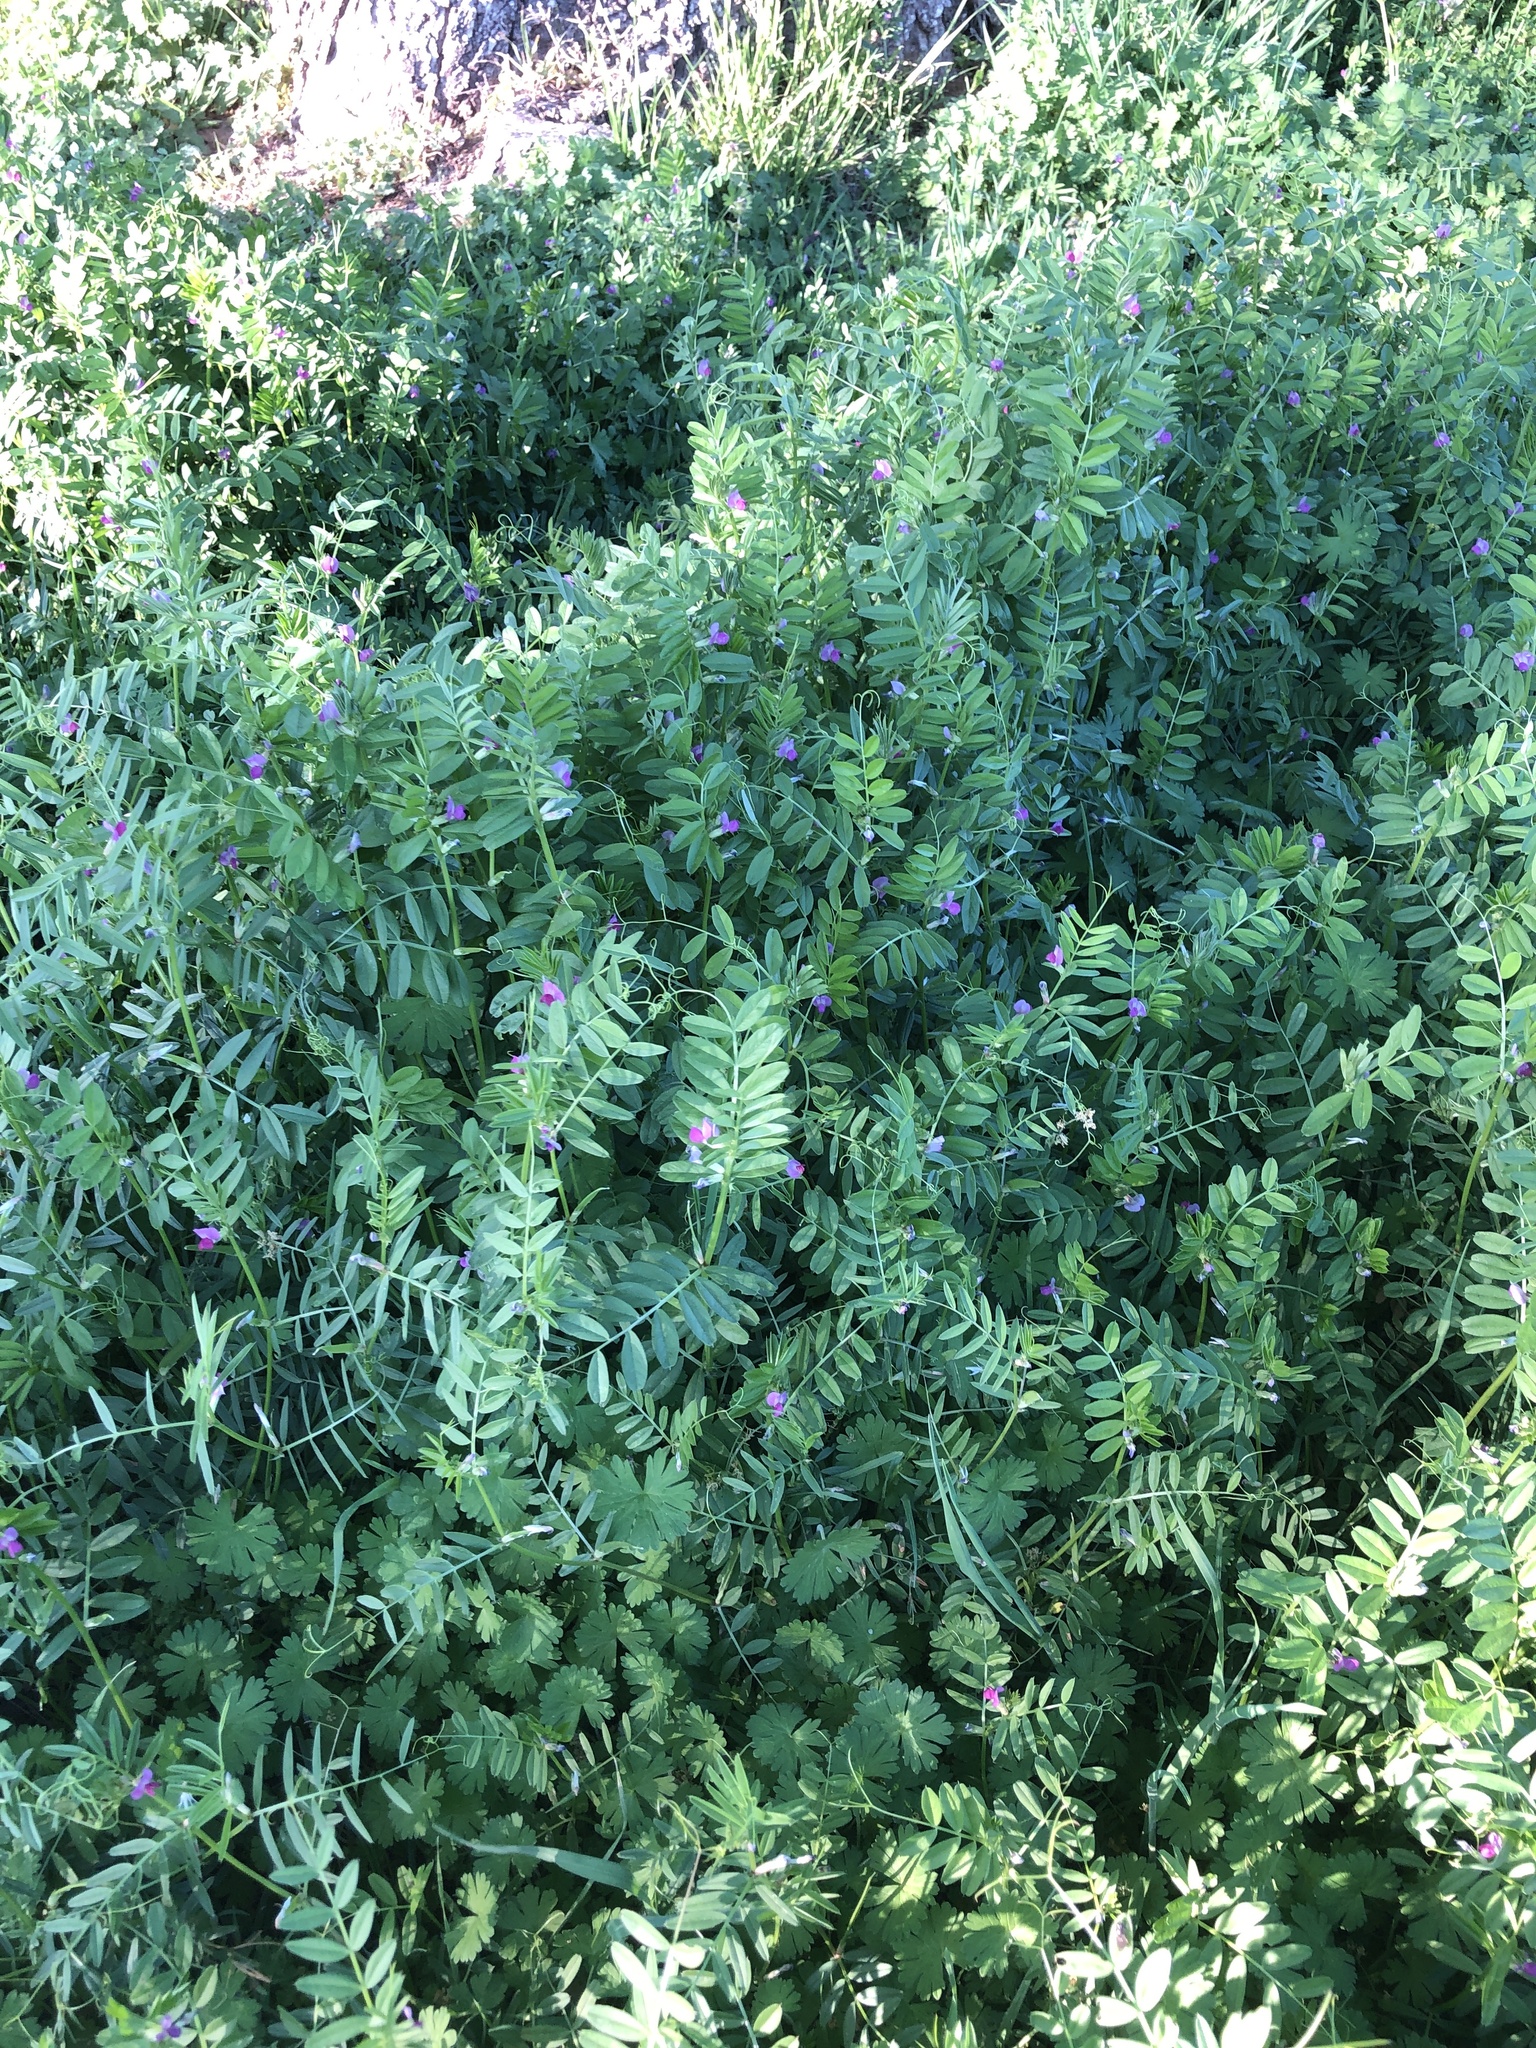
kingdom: Plantae
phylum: Tracheophyta
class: Magnoliopsida
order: Fabales
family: Fabaceae
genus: Vicia
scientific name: Vicia sativa
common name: Garden vetch
